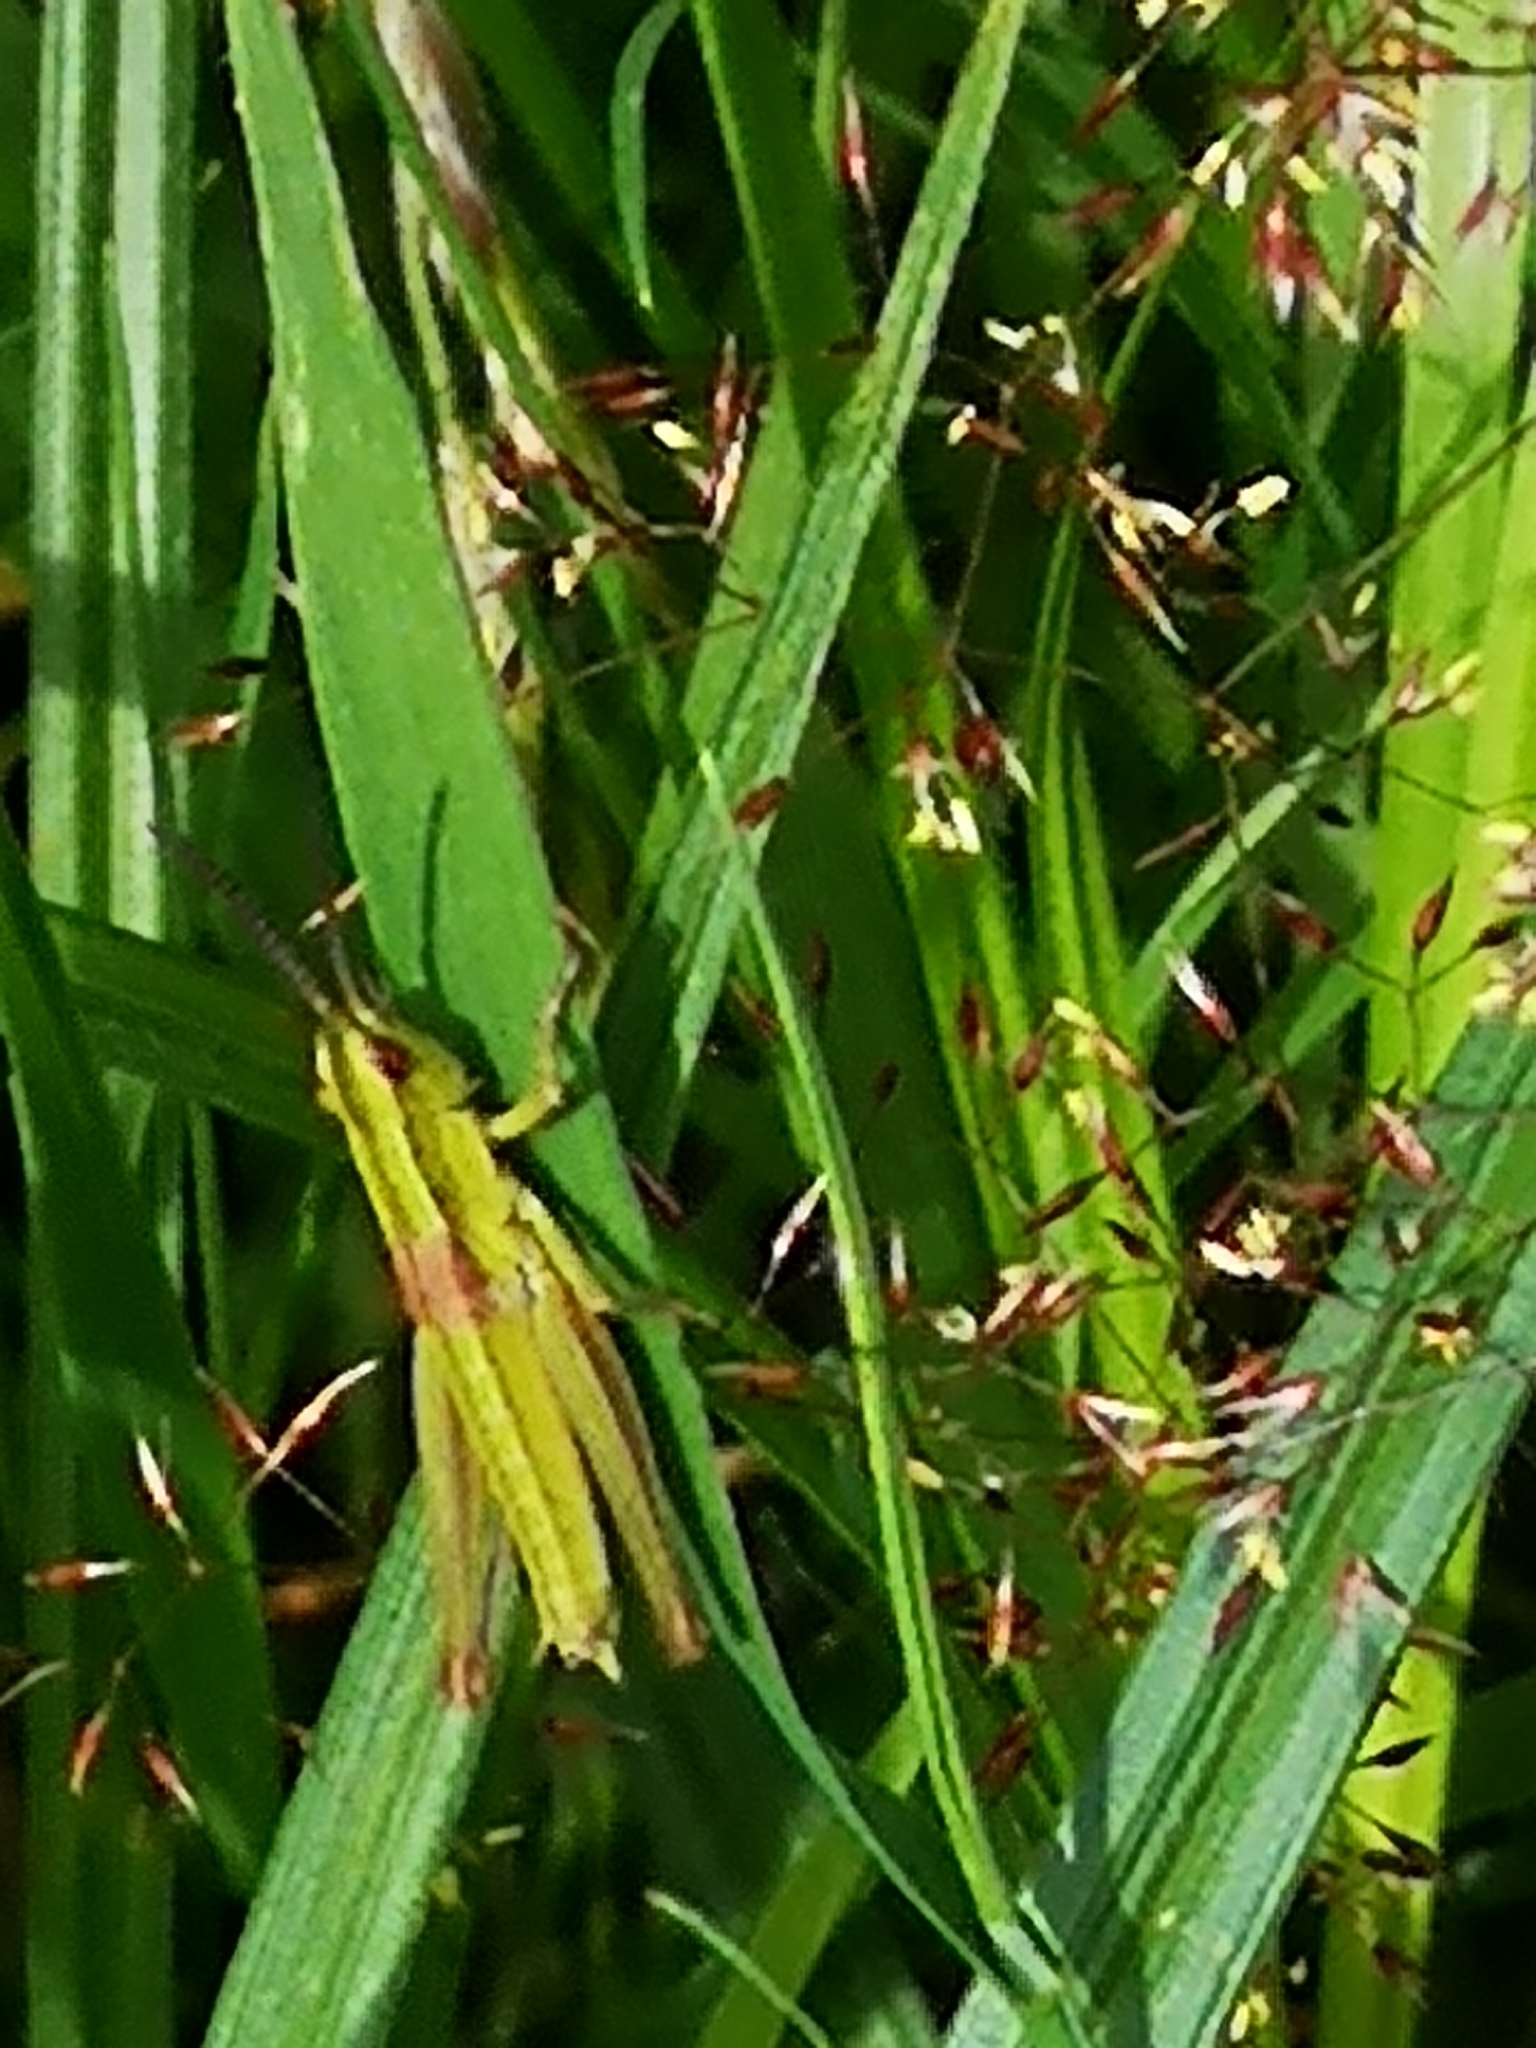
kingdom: Animalia
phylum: Arthropoda
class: Insecta
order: Orthoptera
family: Acrididae
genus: Euthystira
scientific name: Euthystira brachyptera
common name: Small gold grasshopper
